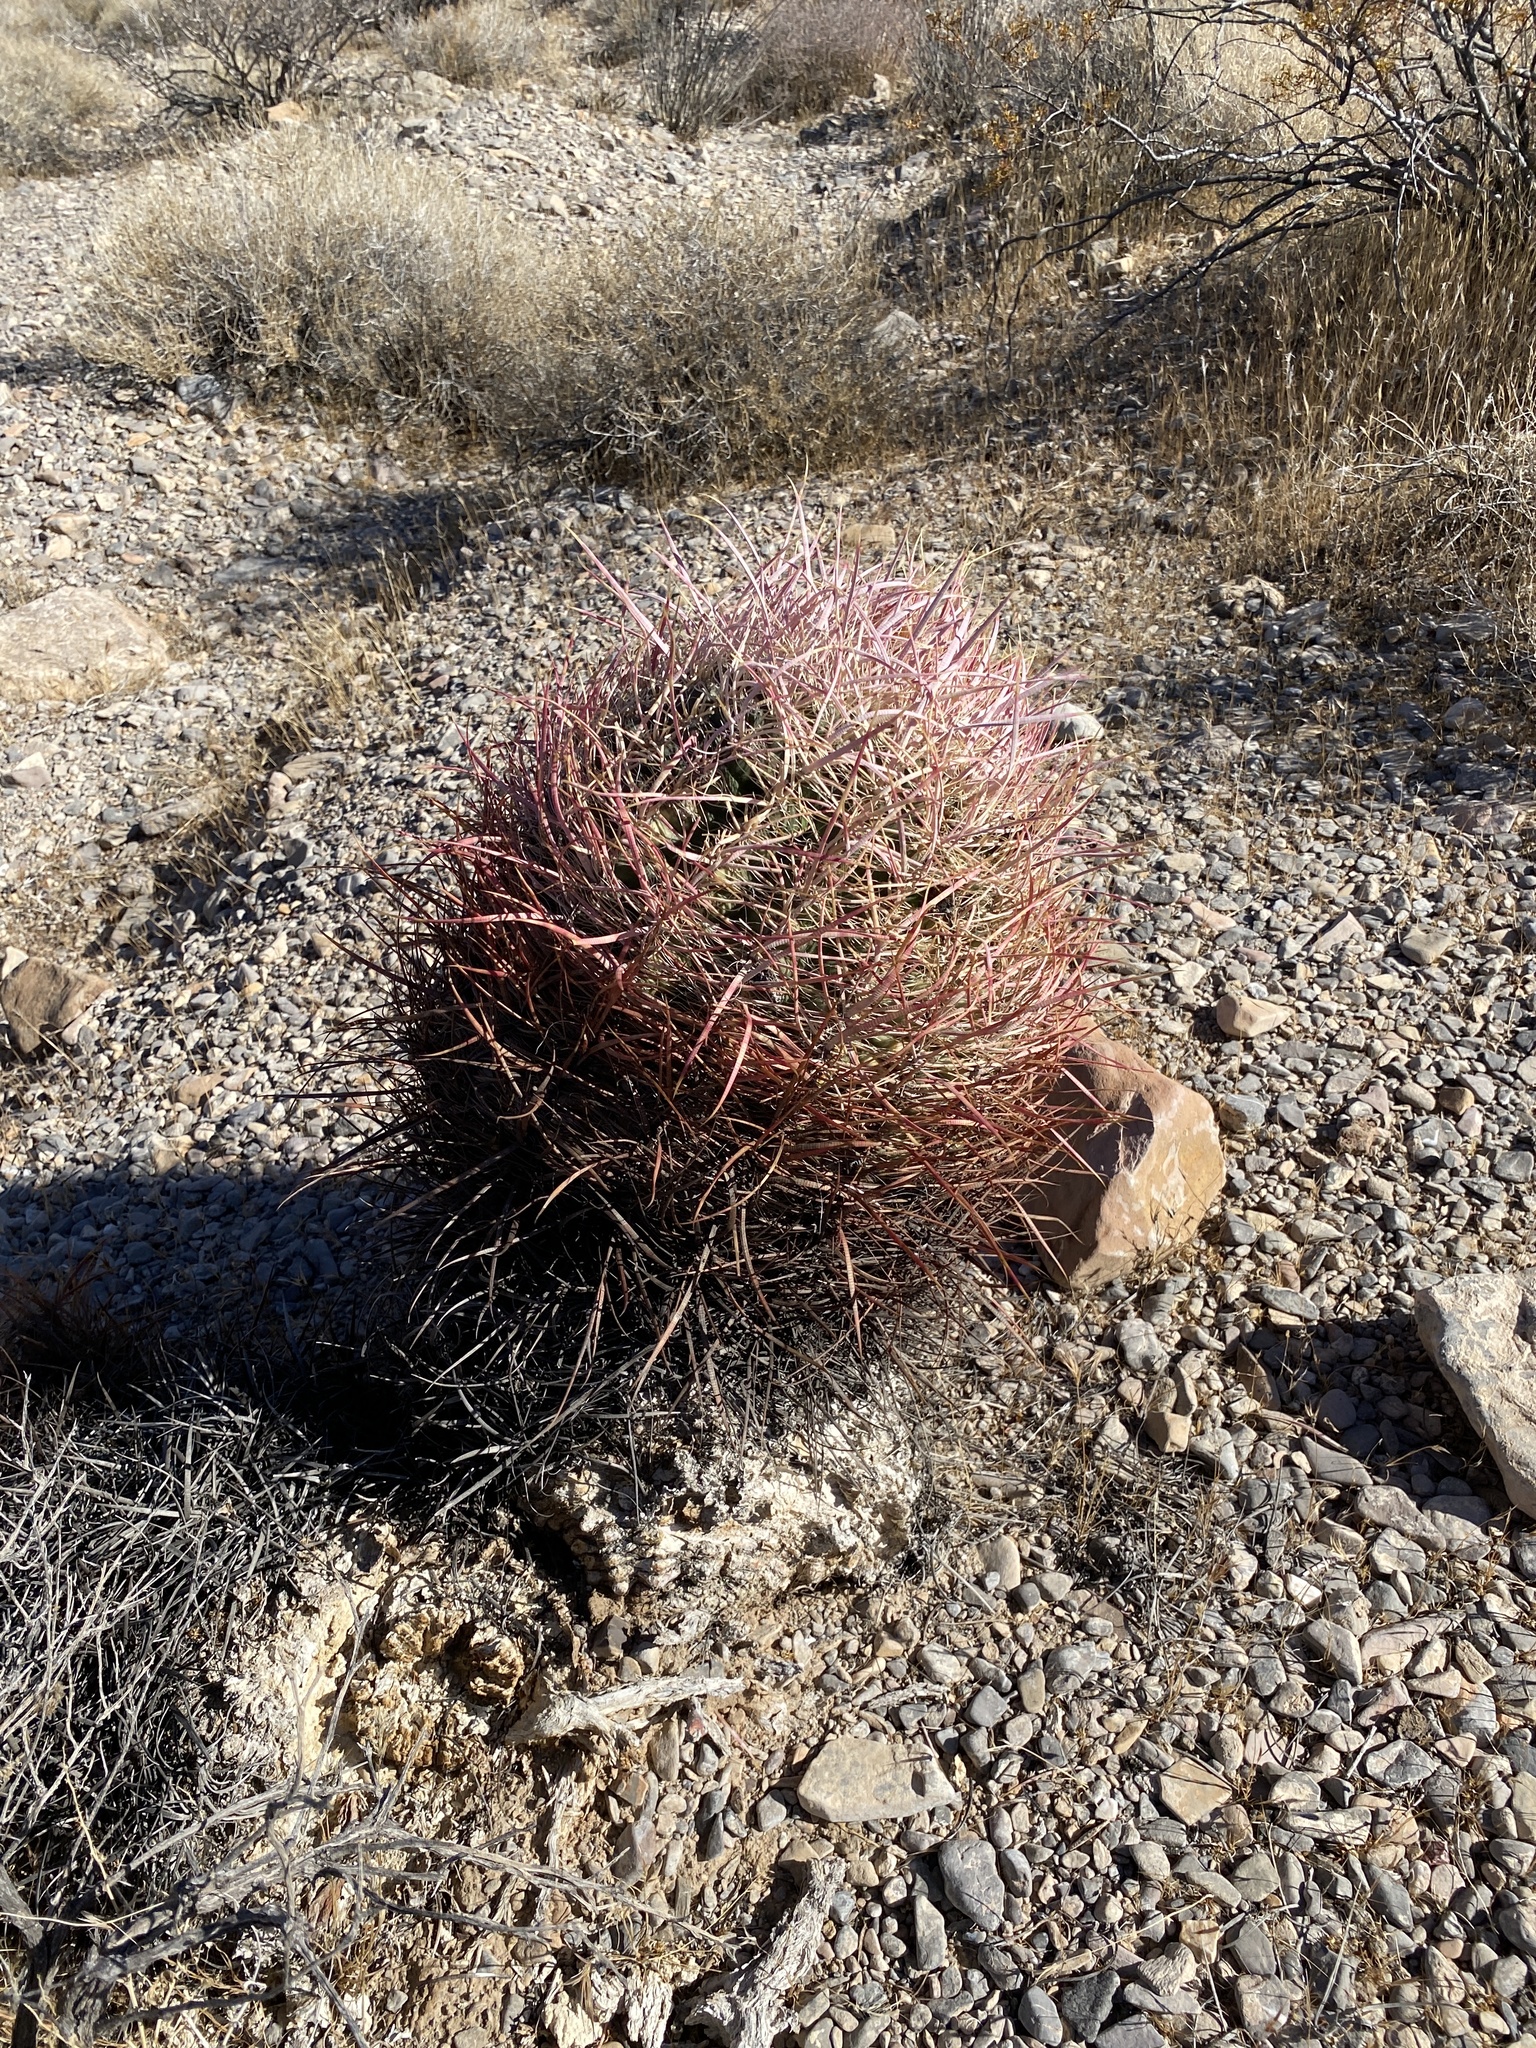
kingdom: Plantae
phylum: Tracheophyta
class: Magnoliopsida
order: Caryophyllales
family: Cactaceae
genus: Ferocactus
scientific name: Ferocactus cylindraceus
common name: California barrel cactus
